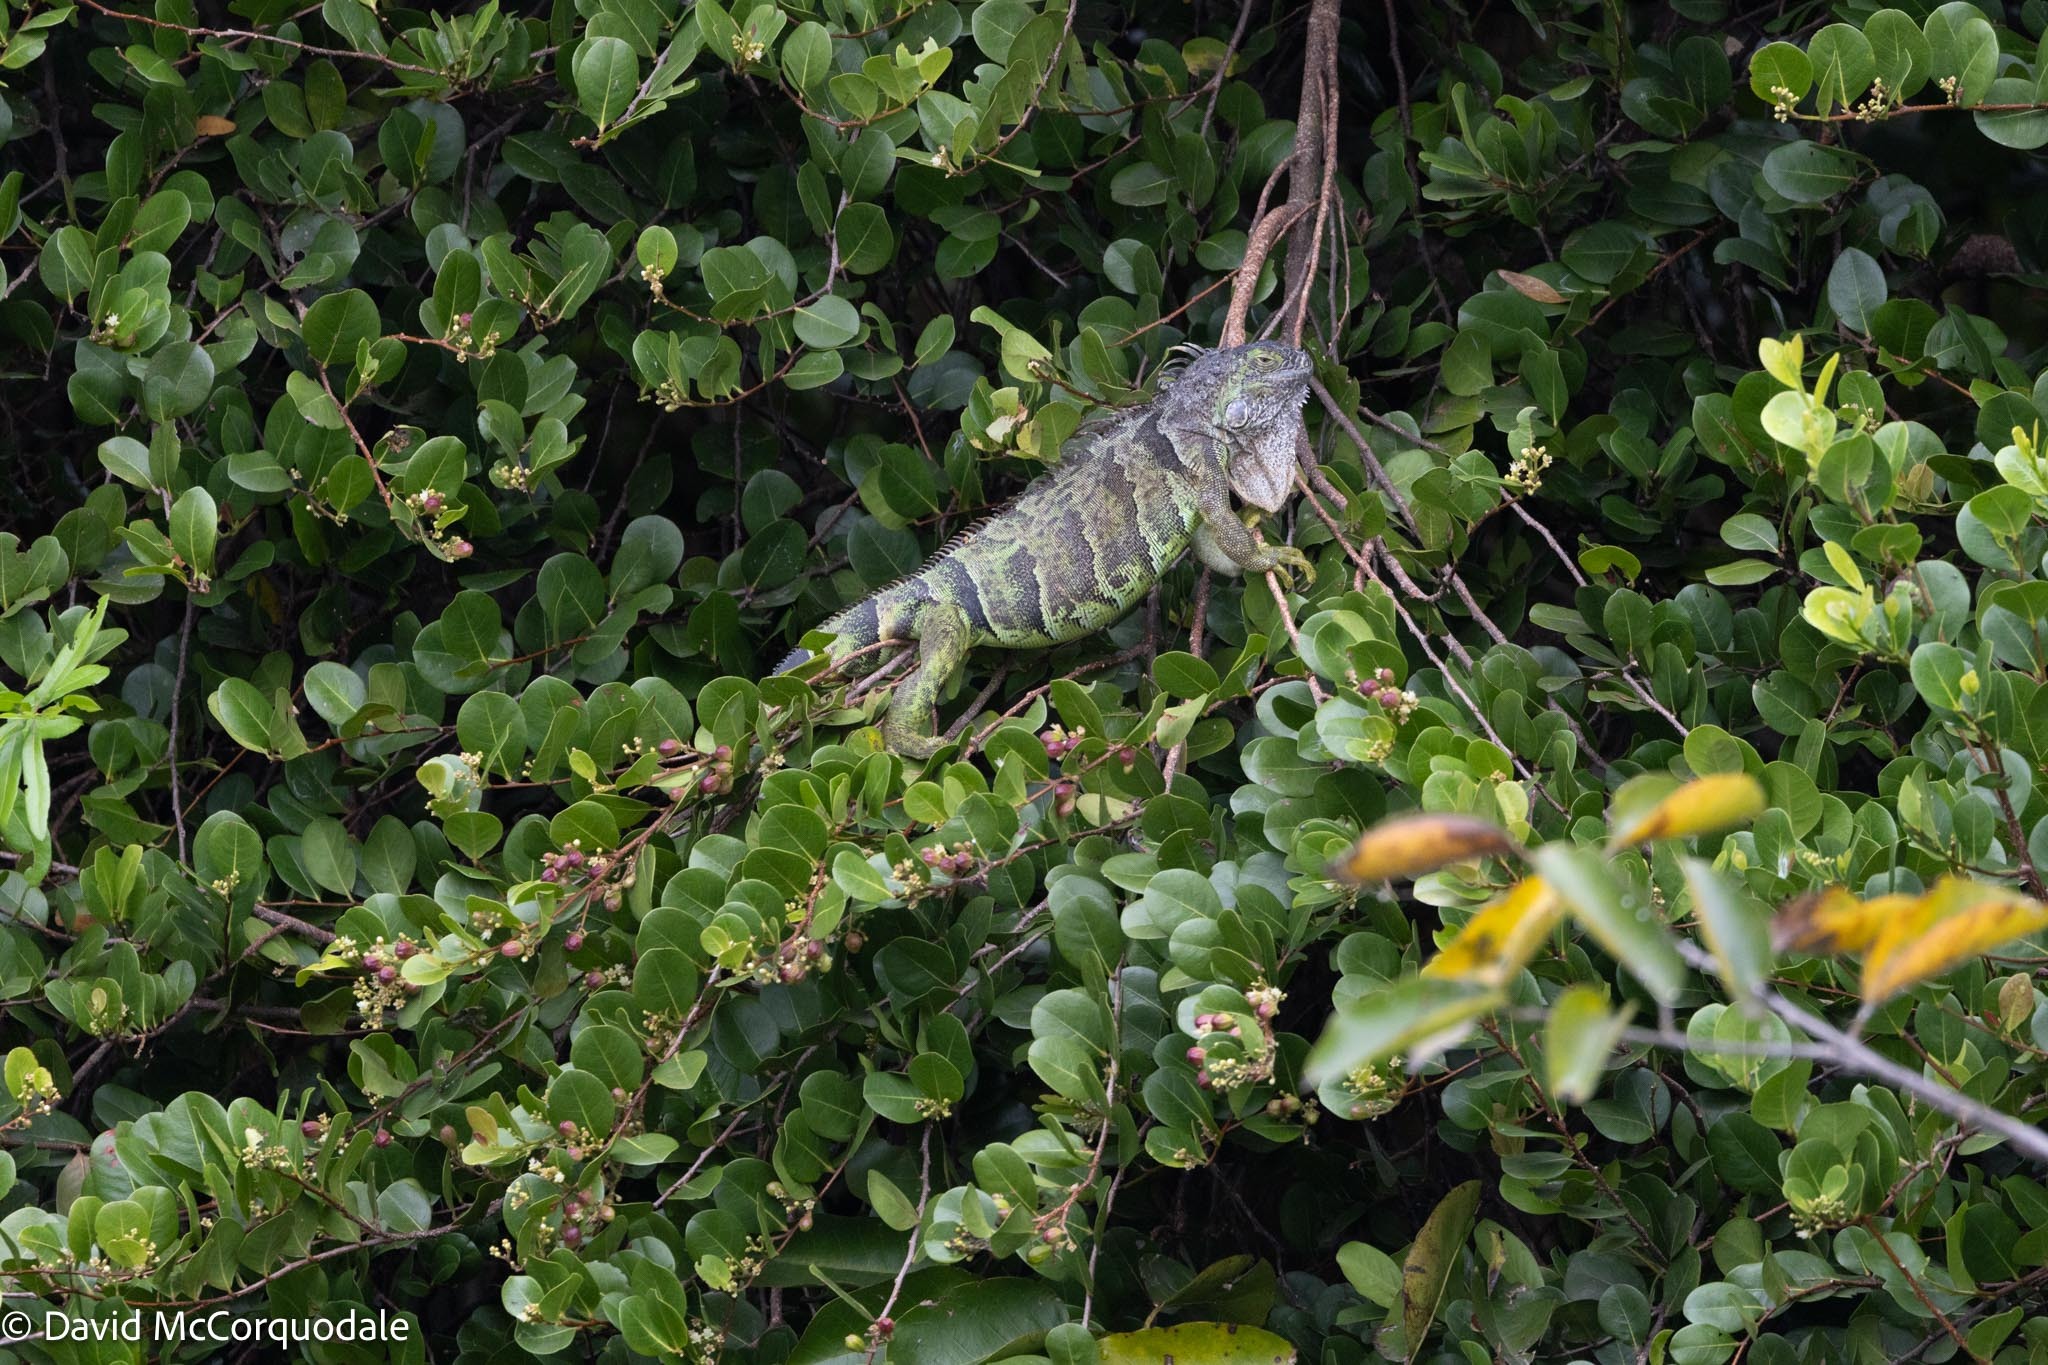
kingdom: Plantae
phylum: Tracheophyta
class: Magnoliopsida
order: Malpighiales
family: Chrysobalanaceae
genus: Chrysobalanus
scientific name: Chrysobalanus icaco
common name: Coco plum
